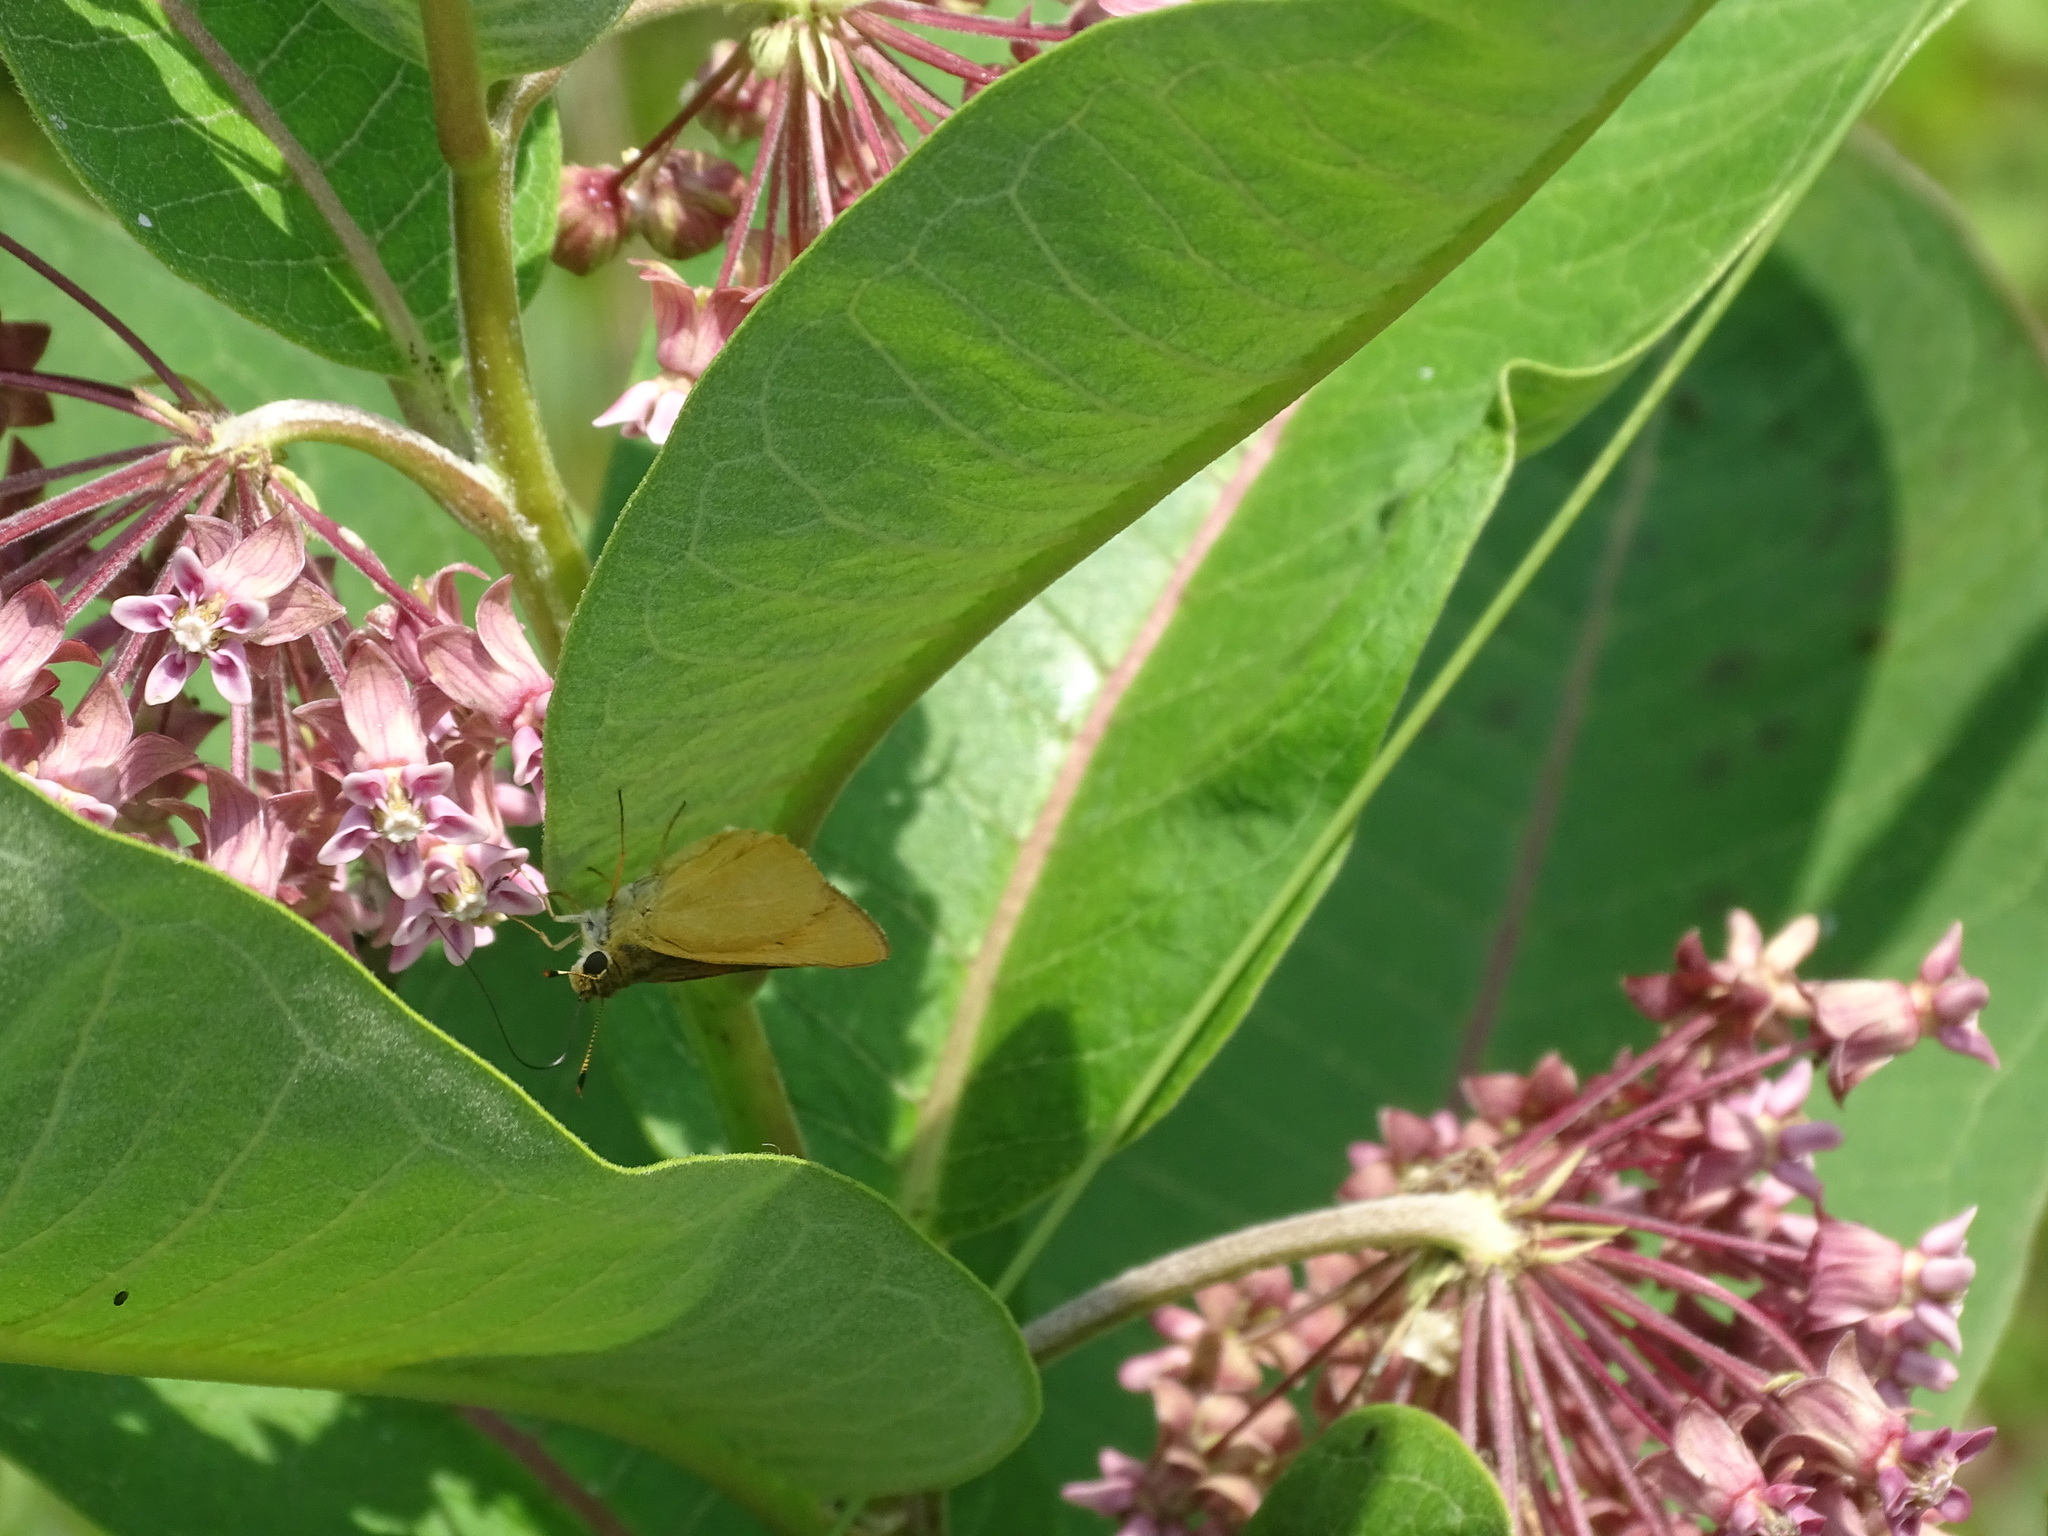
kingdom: Animalia
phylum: Arthropoda
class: Insecta
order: Lepidoptera
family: Hesperiidae
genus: Atrytone
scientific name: Atrytone delaware
